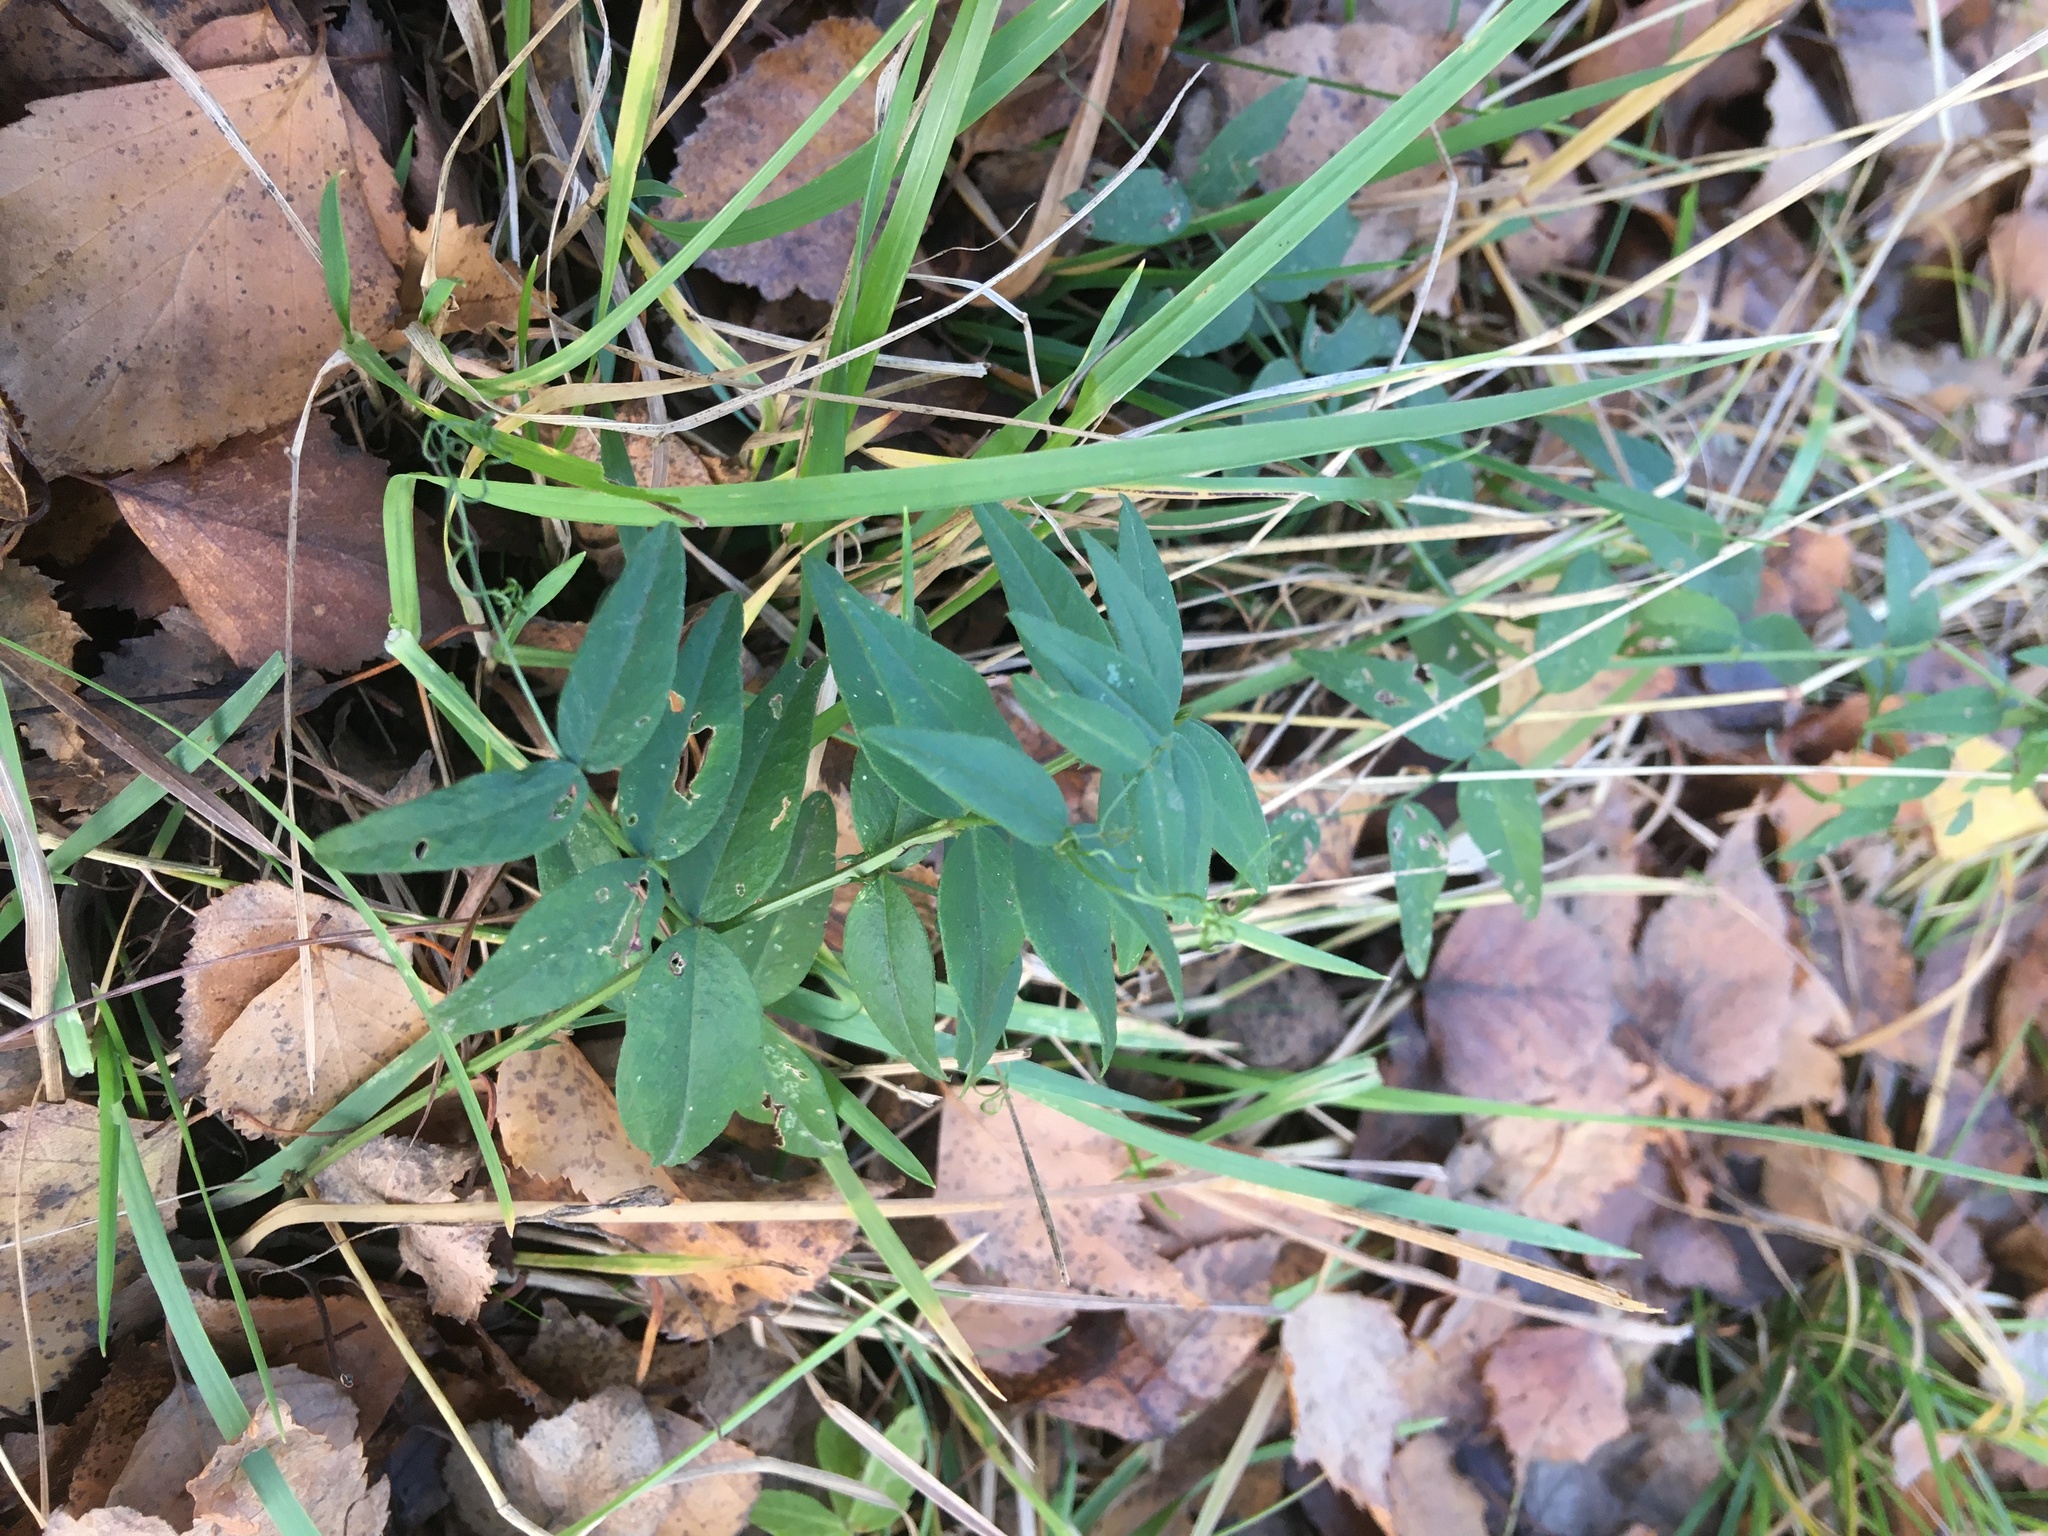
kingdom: Plantae
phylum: Tracheophyta
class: Magnoliopsida
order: Fabales
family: Fabaceae
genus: Vicia
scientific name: Vicia sepium
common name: Bush vetch
